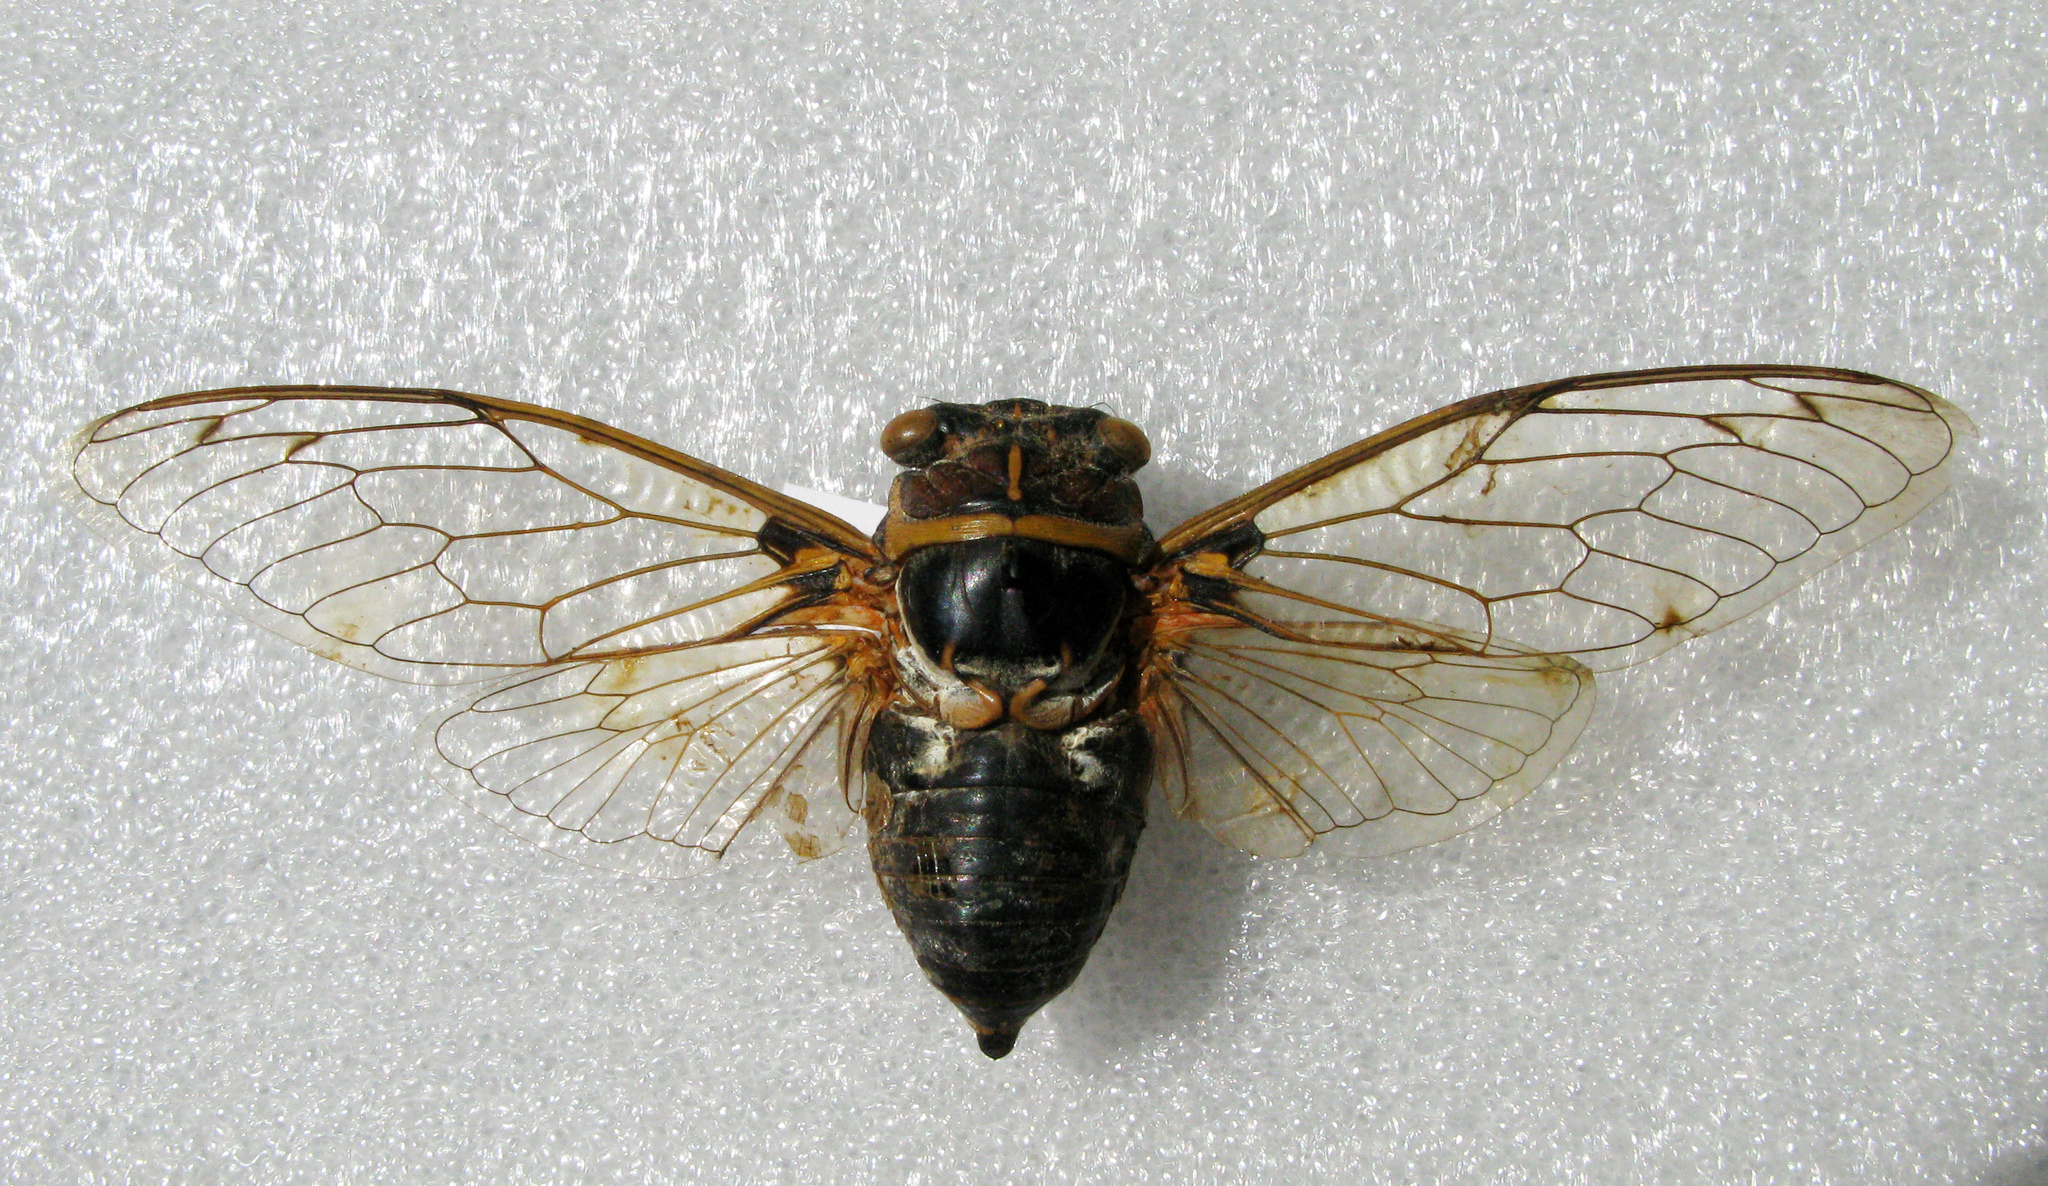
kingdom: Animalia
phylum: Arthropoda
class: Insecta
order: Hemiptera
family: Cicadidae
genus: Lyristes
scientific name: Lyristes gemellus
